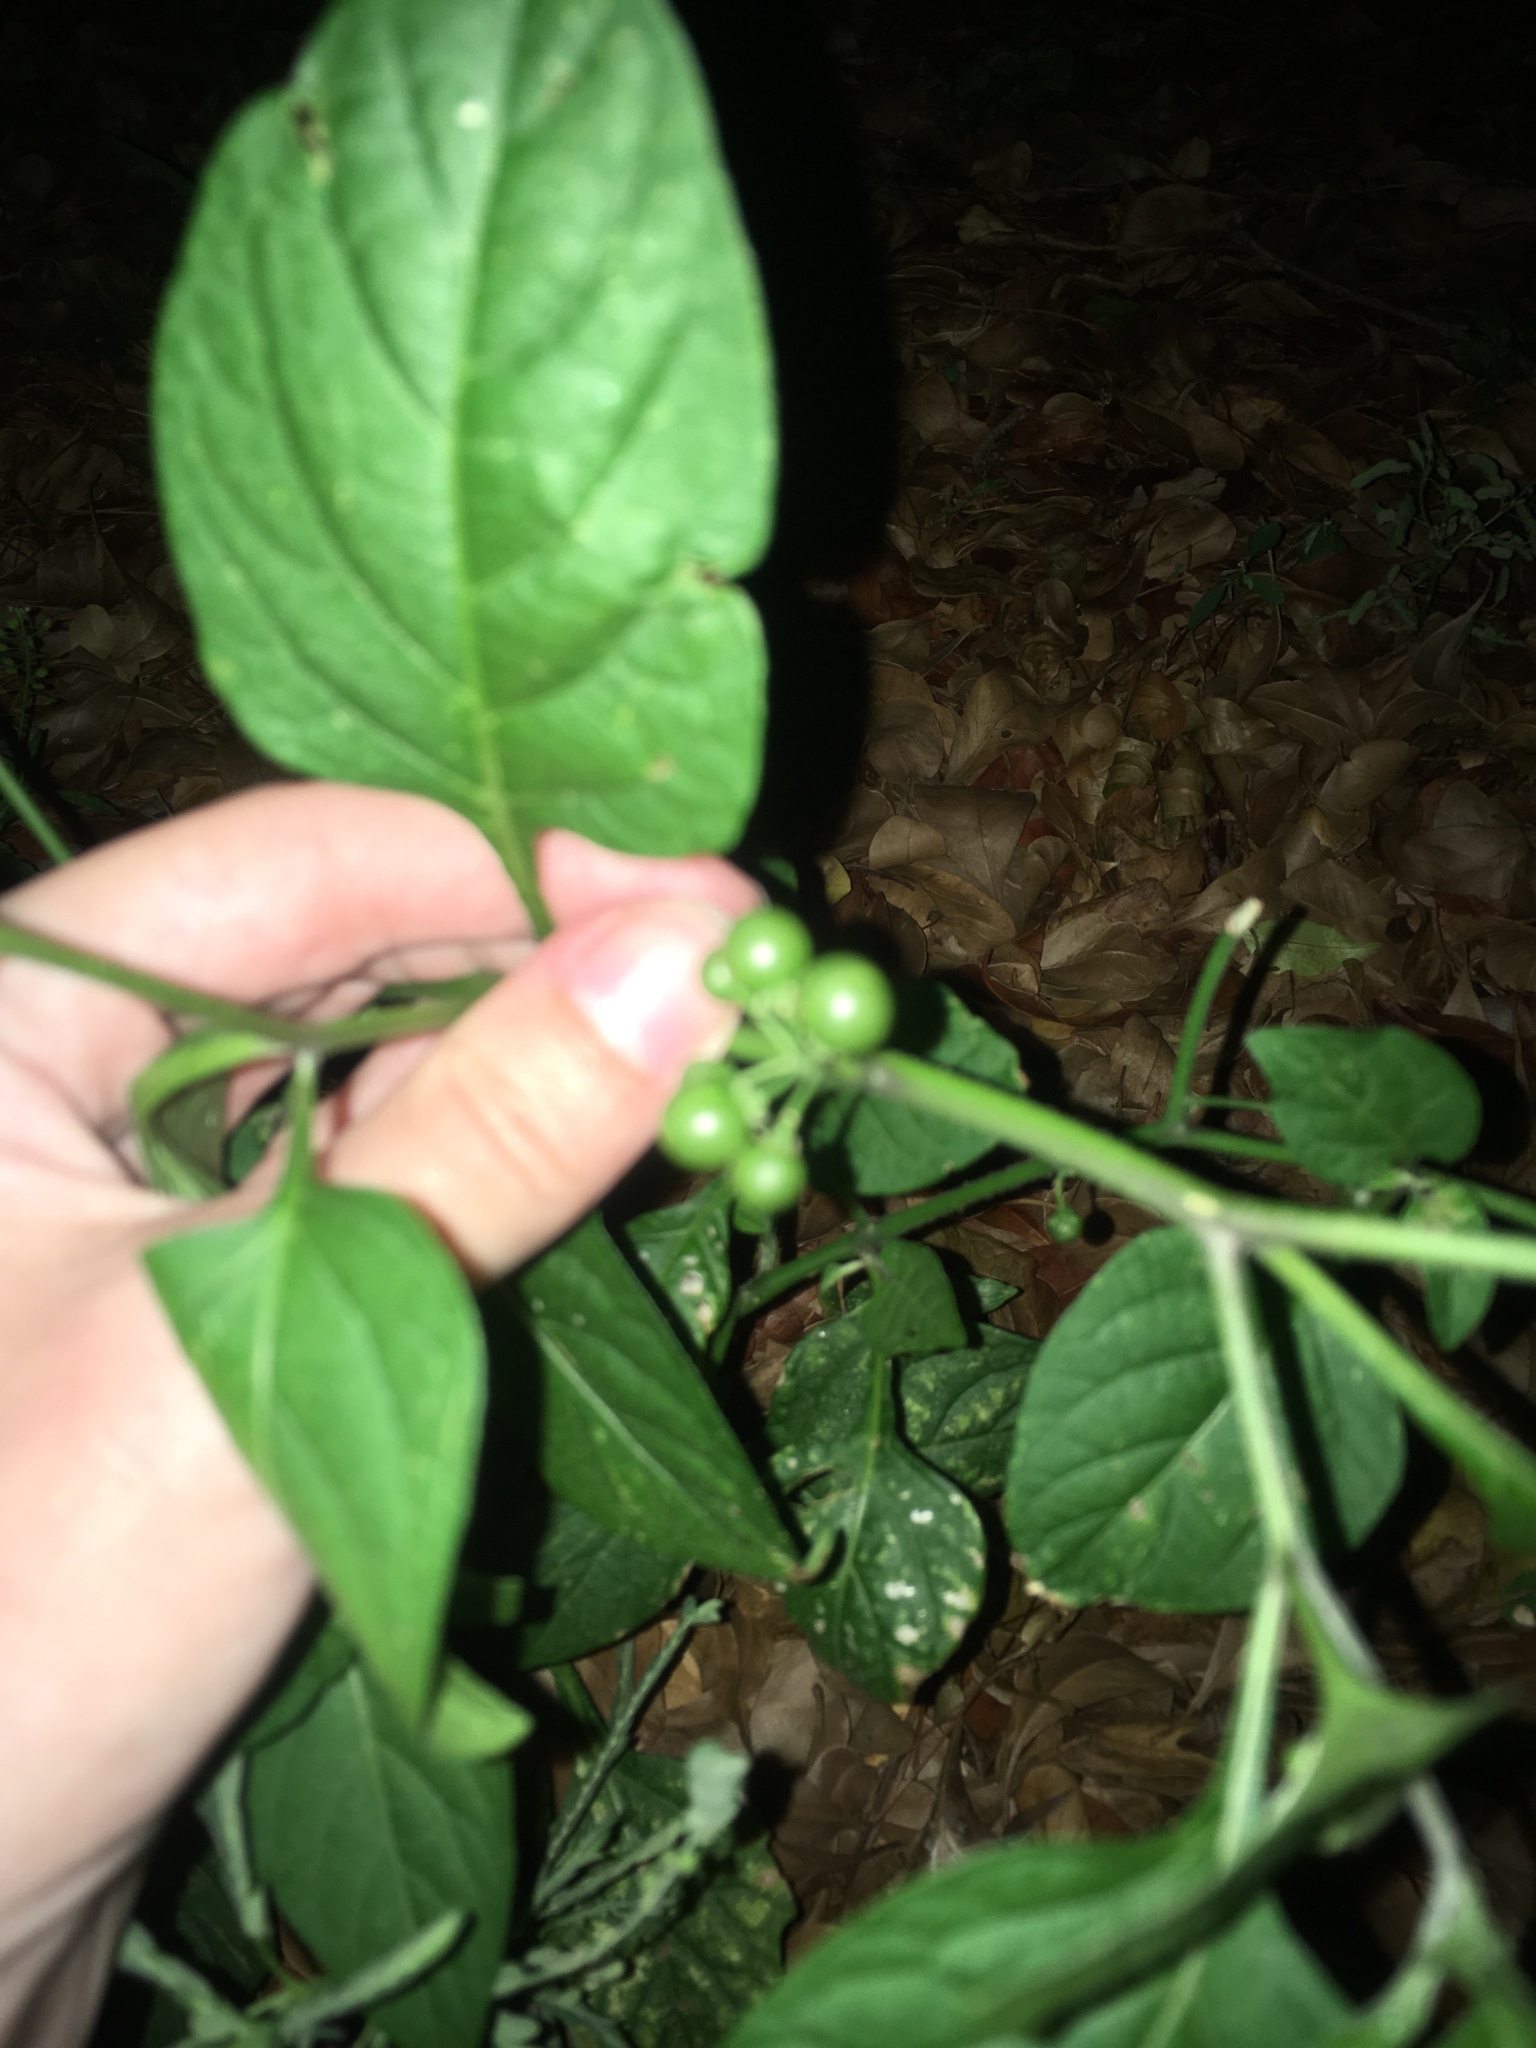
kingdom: Plantae
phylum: Tracheophyta
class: Magnoliopsida
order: Solanales
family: Solanaceae
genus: Solanum
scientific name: Solanum americanum
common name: American black nightshade
